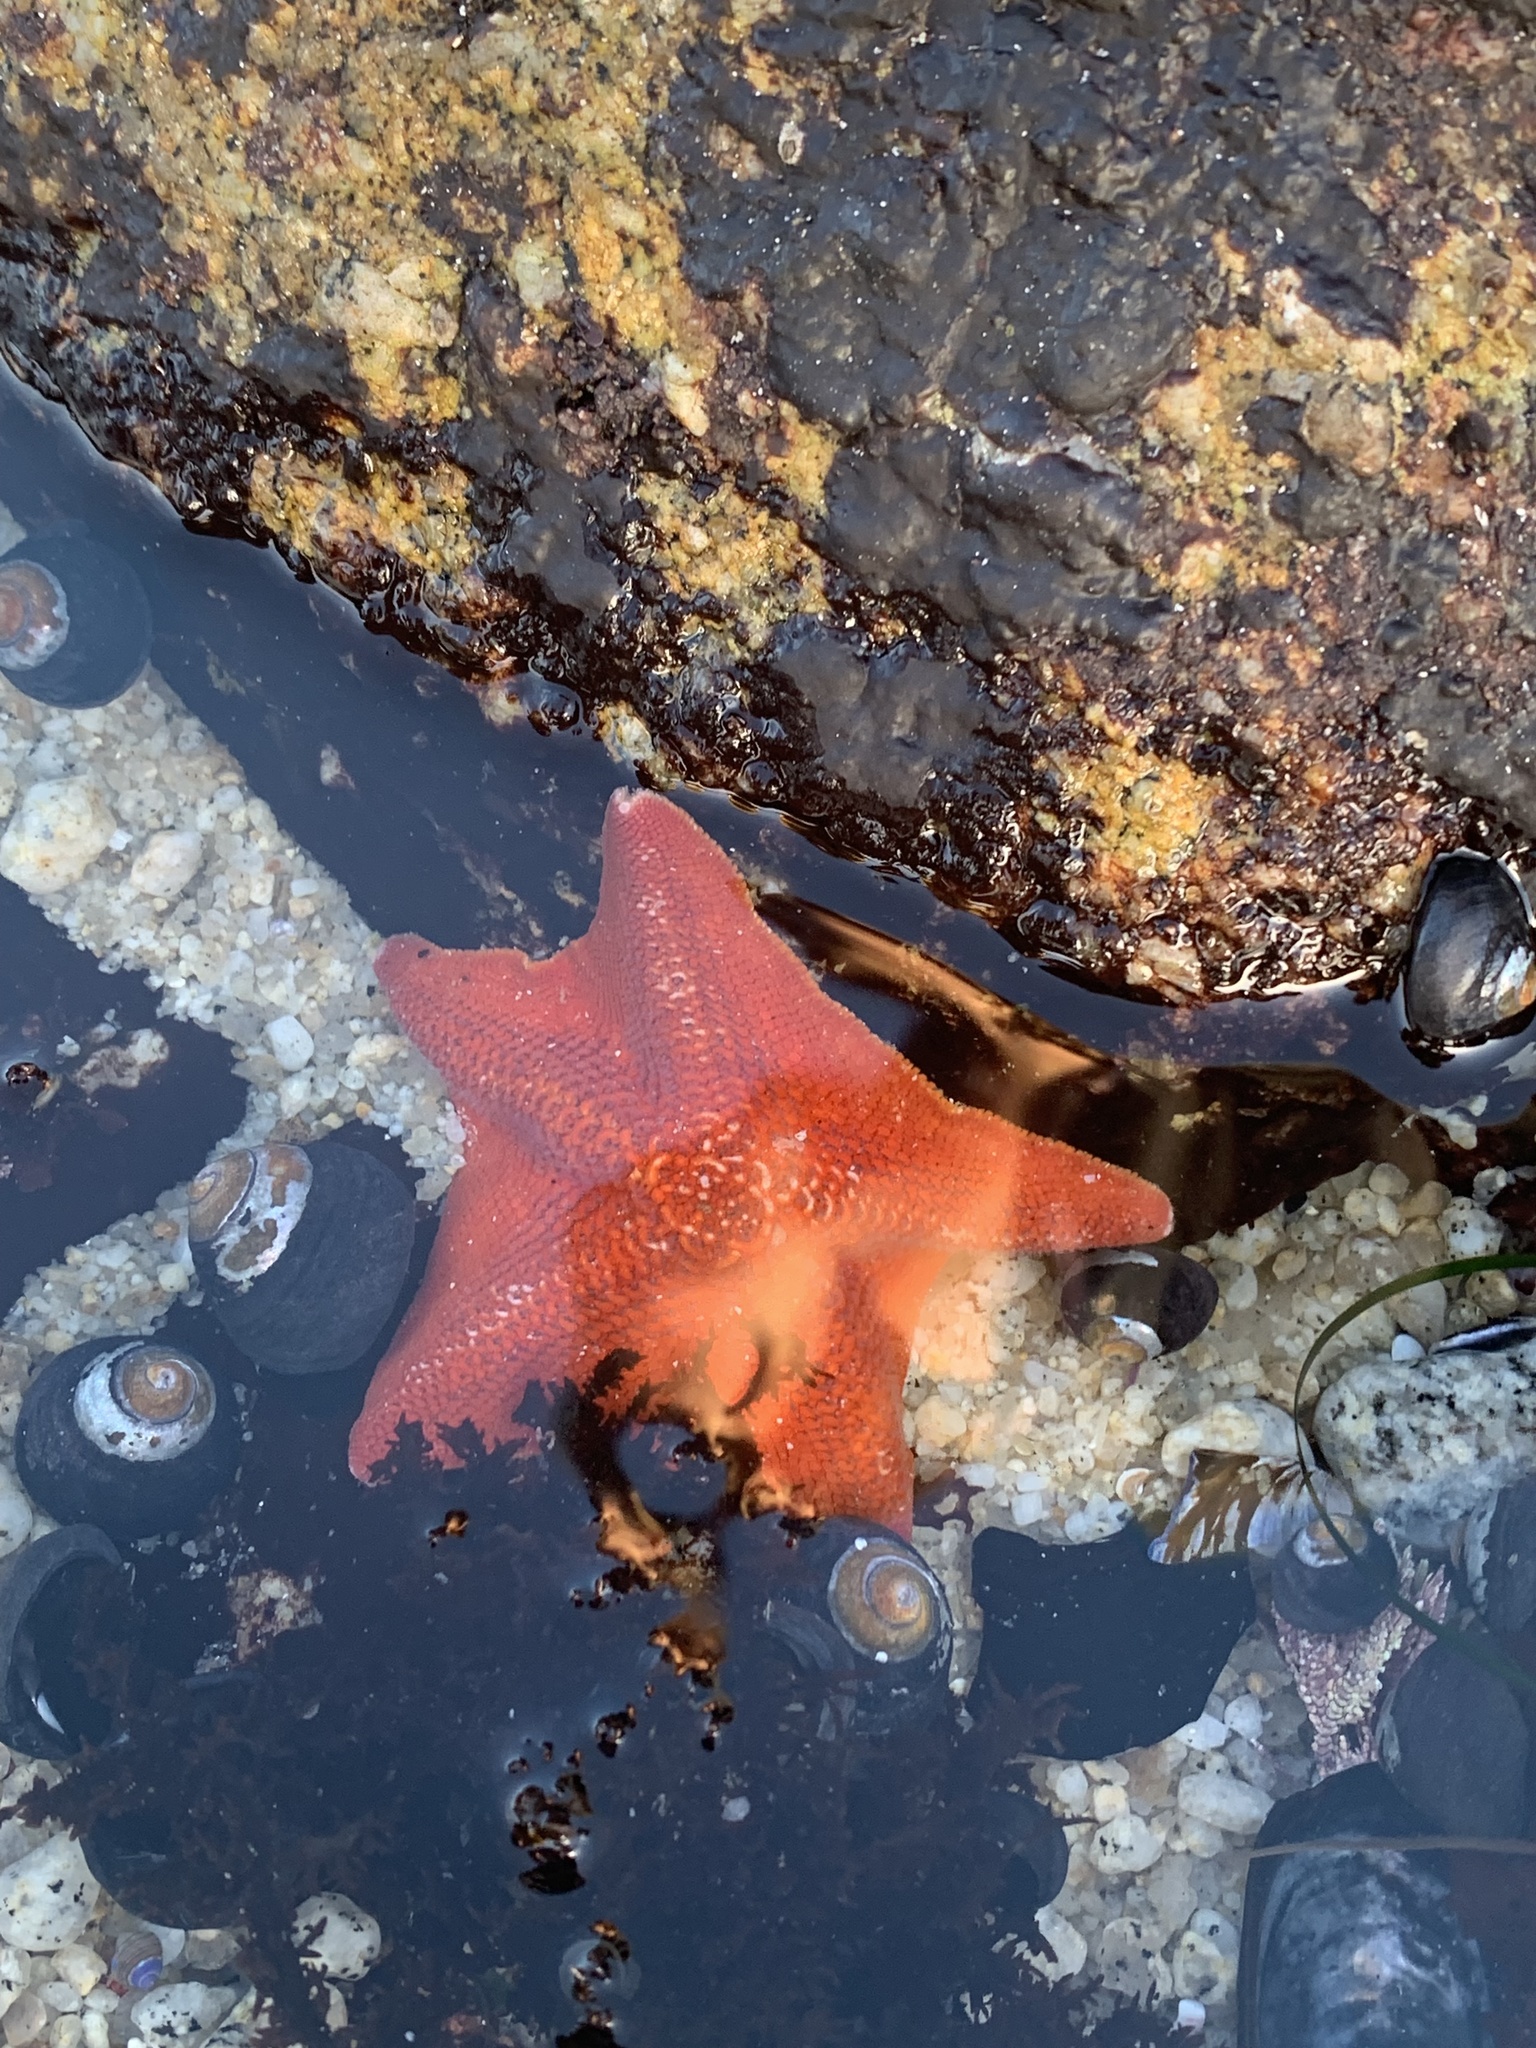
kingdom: Animalia
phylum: Echinodermata
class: Asteroidea
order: Valvatida
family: Asterinidae
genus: Patiria
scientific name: Patiria miniata
